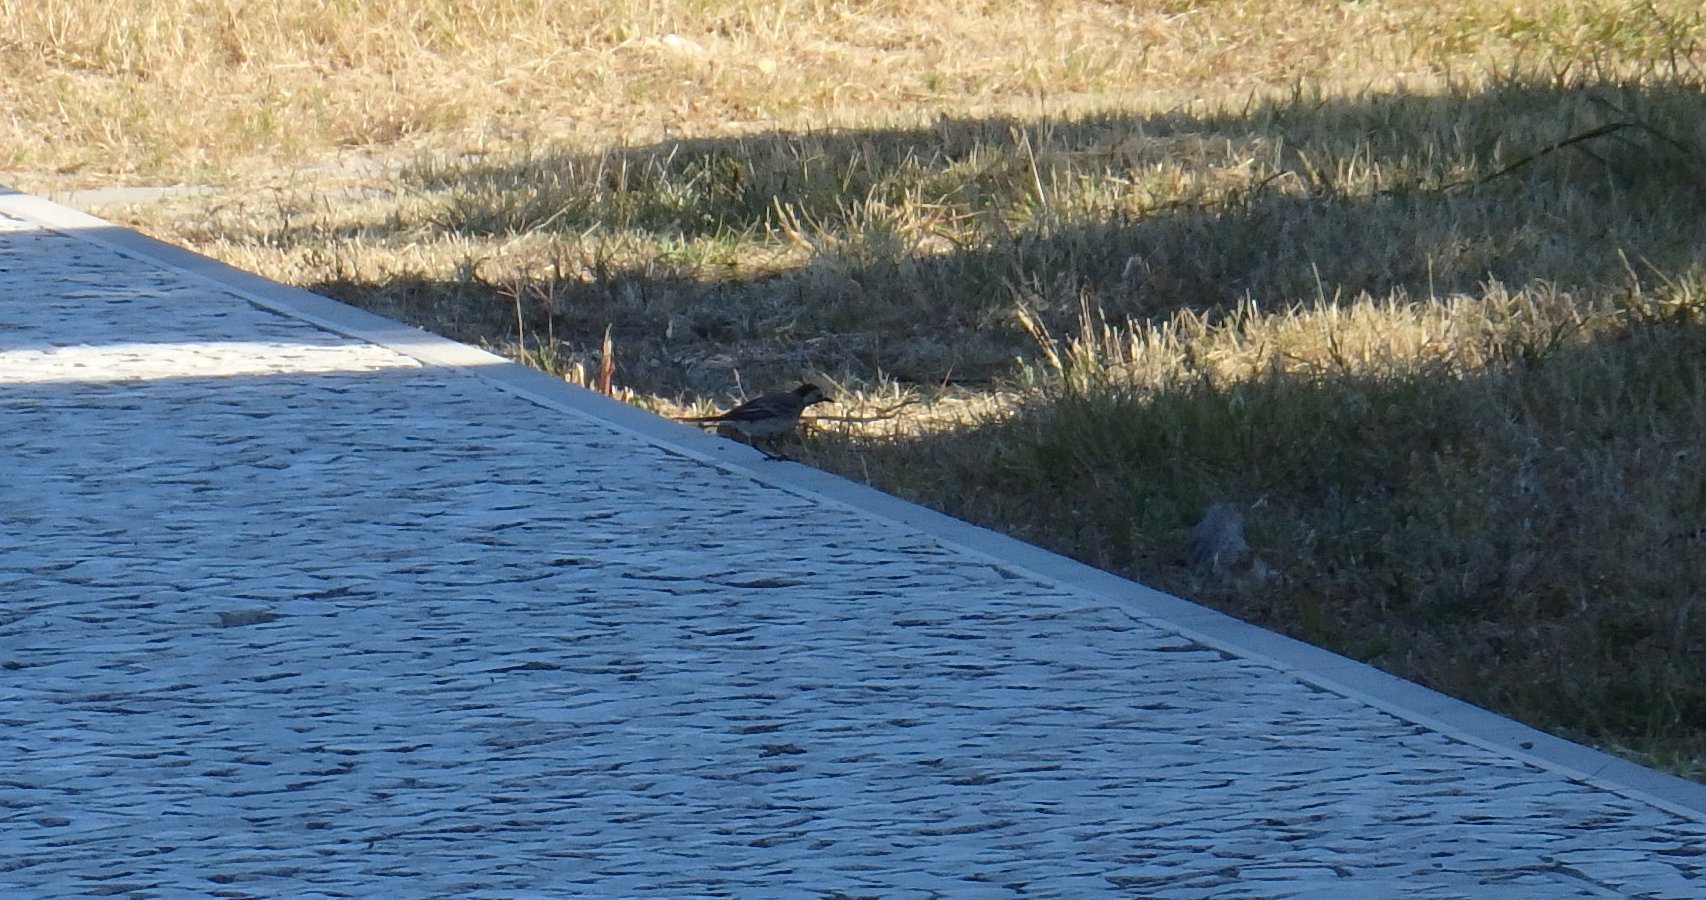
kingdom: Animalia
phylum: Chordata
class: Aves
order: Passeriformes
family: Motacillidae
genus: Motacilla
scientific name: Motacilla alba
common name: White wagtail
